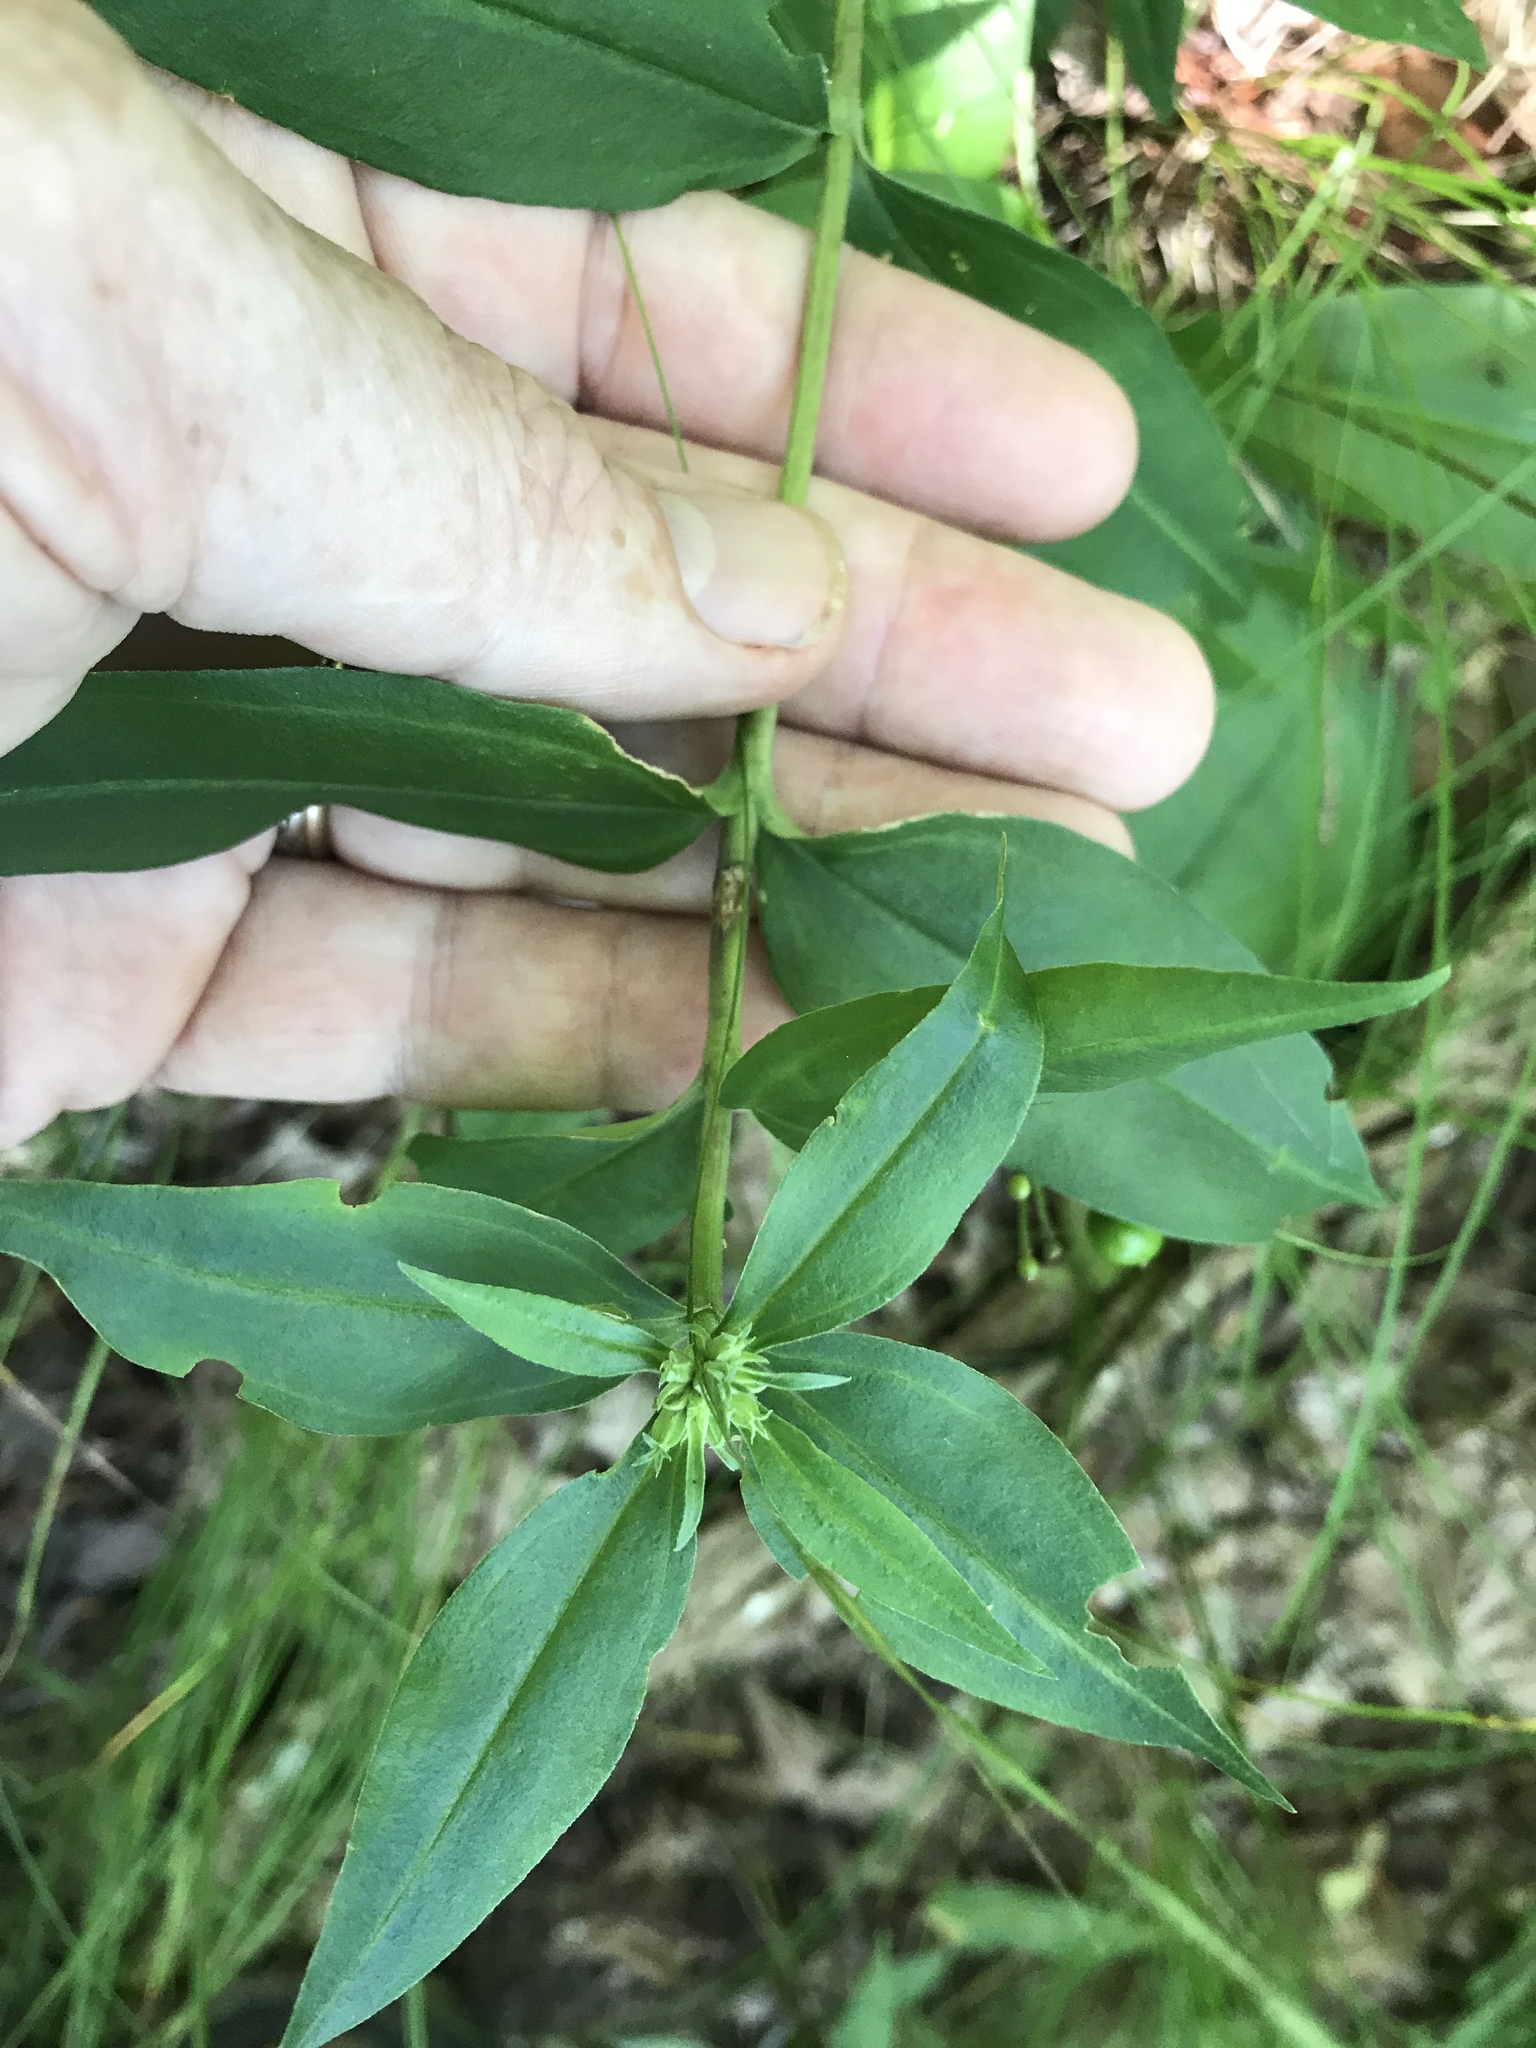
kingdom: Plantae
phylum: Tracheophyta
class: Magnoliopsida
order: Gentianales
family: Gentianaceae
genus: Gentiana
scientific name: Gentiana decora
